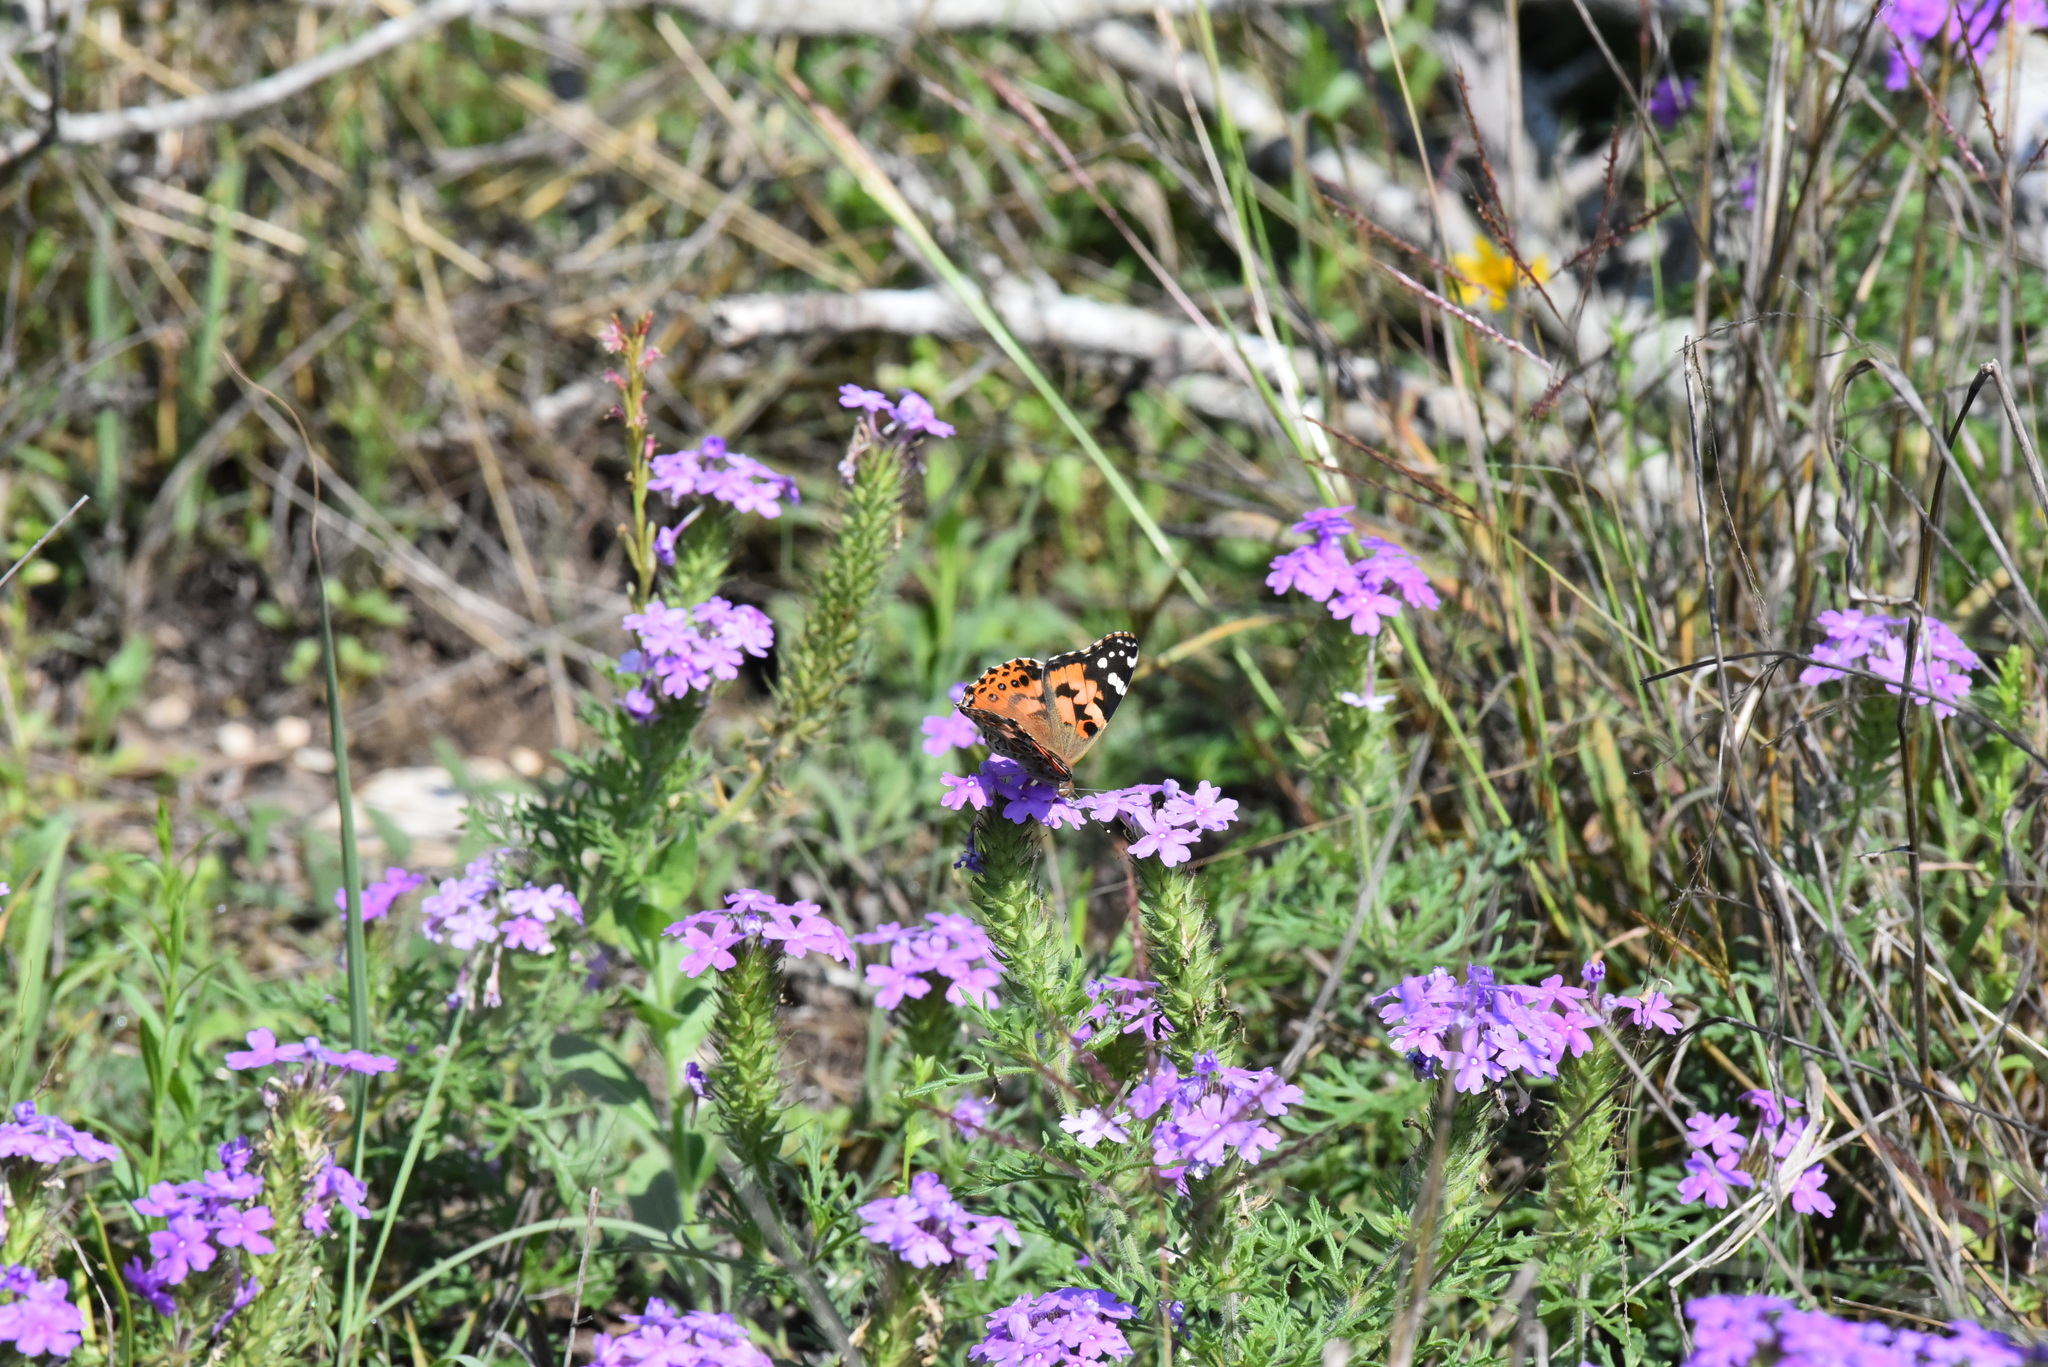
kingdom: Animalia
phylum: Arthropoda
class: Insecta
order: Lepidoptera
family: Nymphalidae
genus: Vanessa
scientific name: Vanessa cardui
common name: Painted lady
